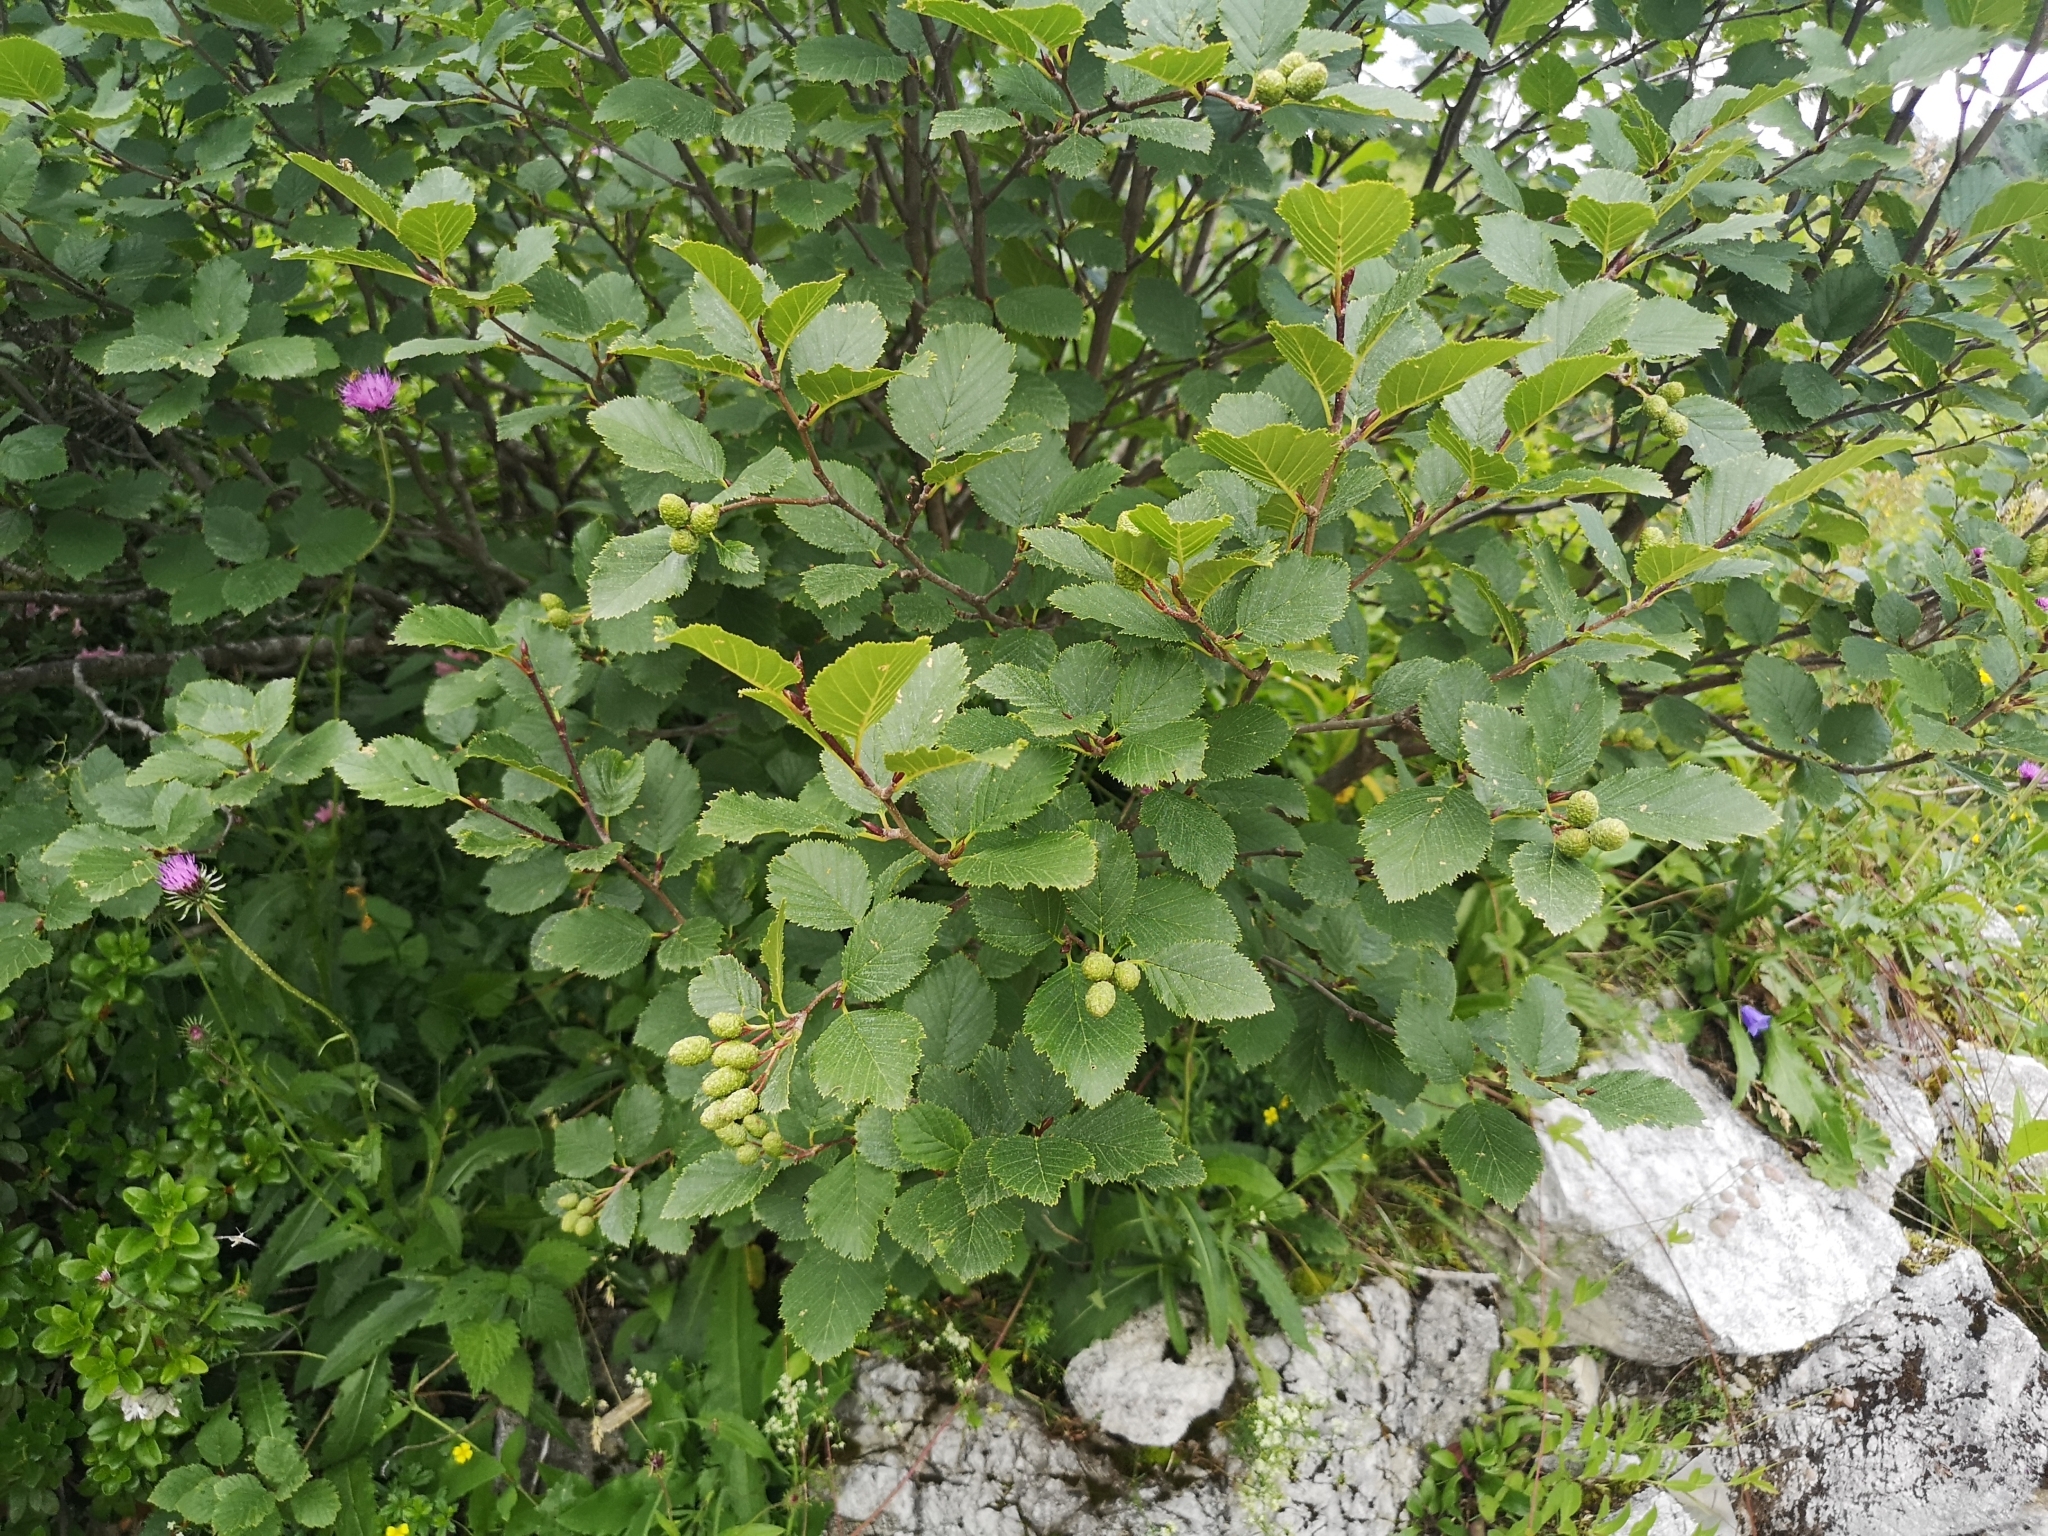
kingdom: Plantae
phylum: Tracheophyta
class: Magnoliopsida
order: Fagales
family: Betulaceae
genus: Alnus
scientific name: Alnus alnobetula
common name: Green alder
